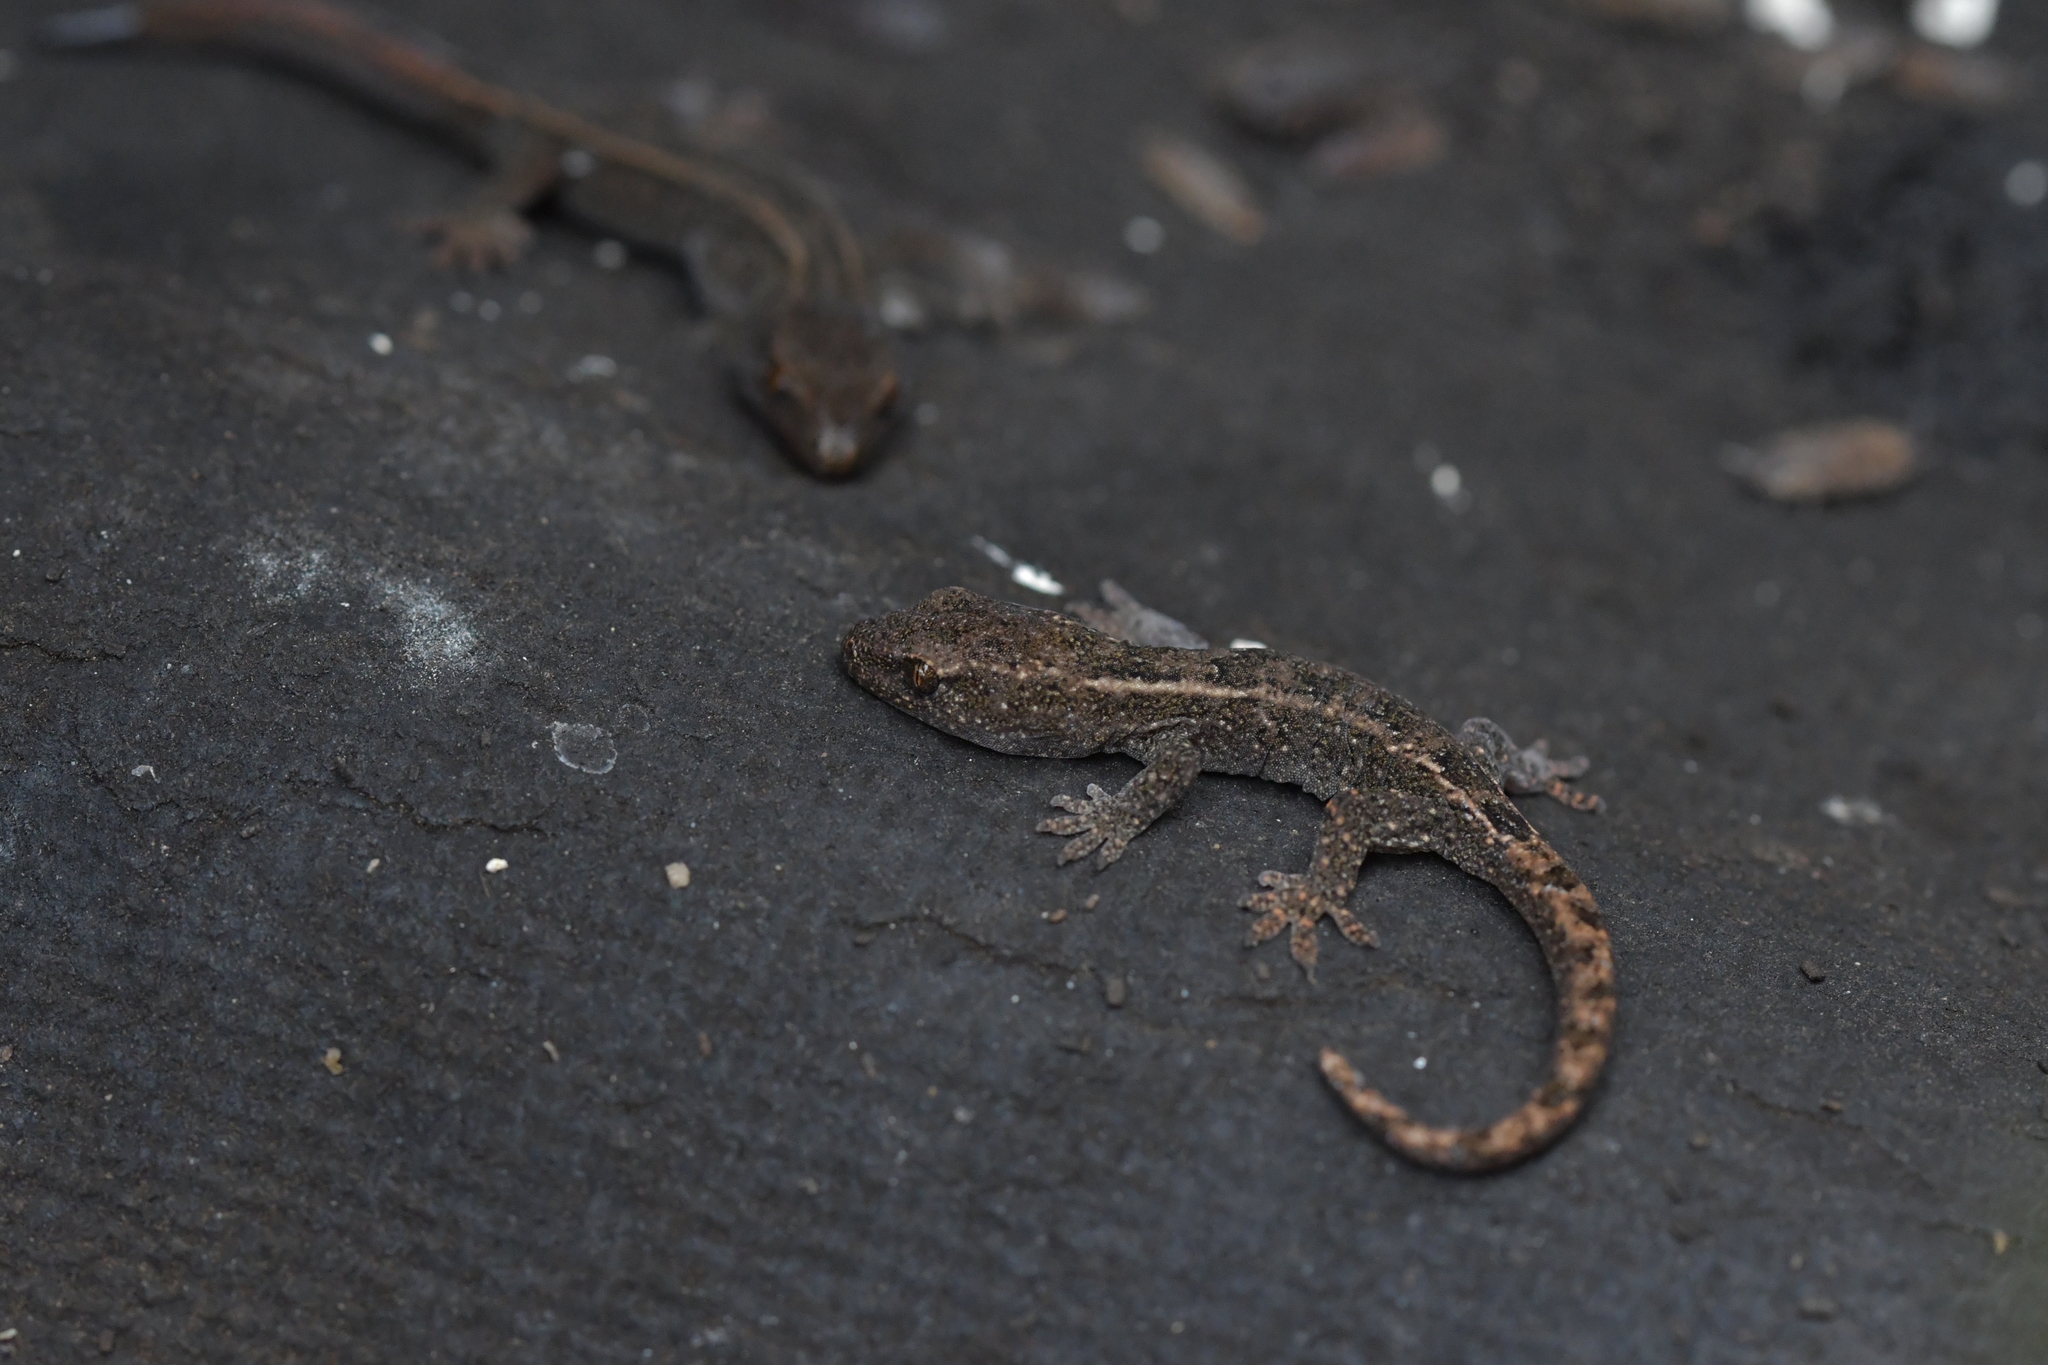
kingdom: Animalia
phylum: Chordata
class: Squamata
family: Diplodactylidae
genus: Woodworthia
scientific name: Woodworthia brunnea
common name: Canterbury gecko
